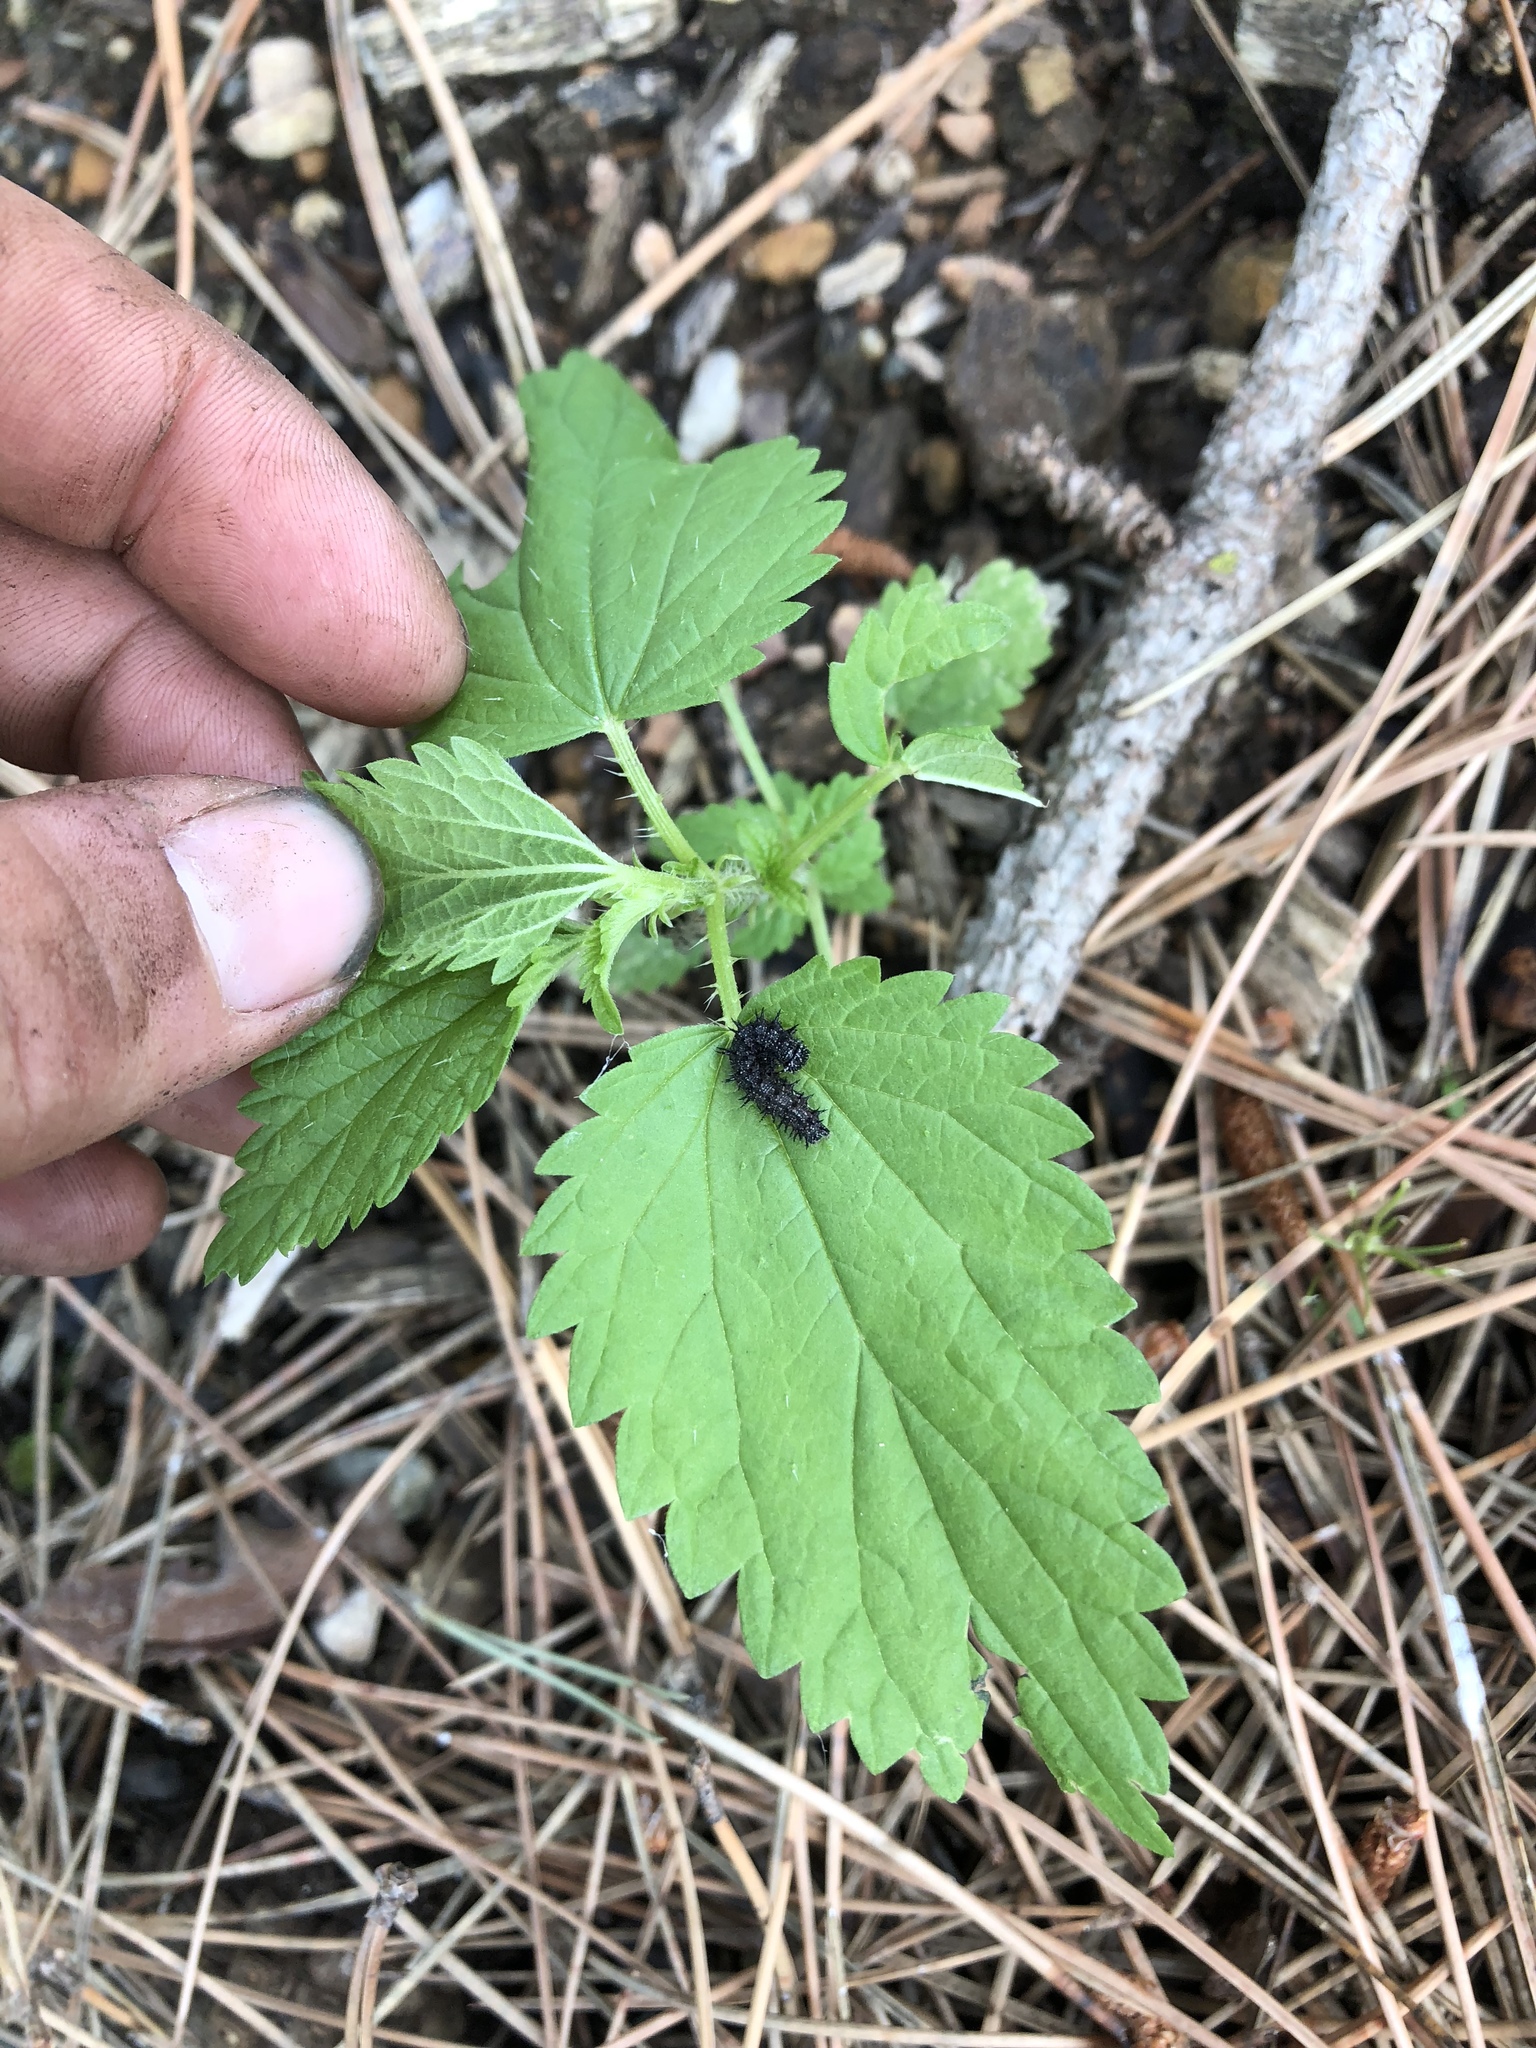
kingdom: Animalia
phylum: Arthropoda
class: Insecta
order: Lepidoptera
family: Nymphalidae
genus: Vanessa
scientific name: Vanessa atalanta
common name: Red admiral
